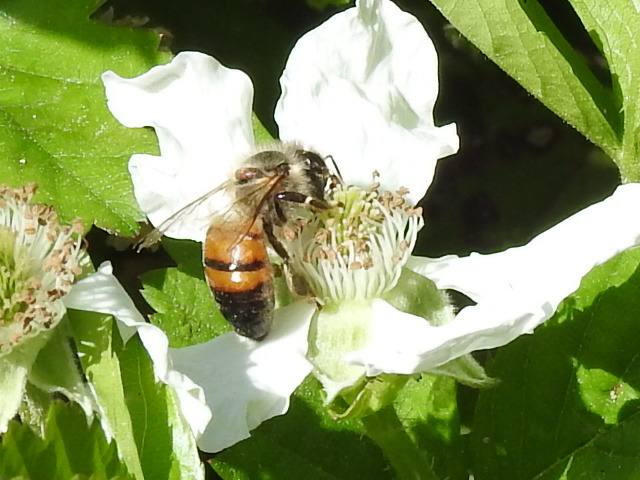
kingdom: Animalia
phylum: Arthropoda
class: Insecta
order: Hymenoptera
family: Apidae
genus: Apis
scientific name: Apis mellifera
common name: Honey bee
